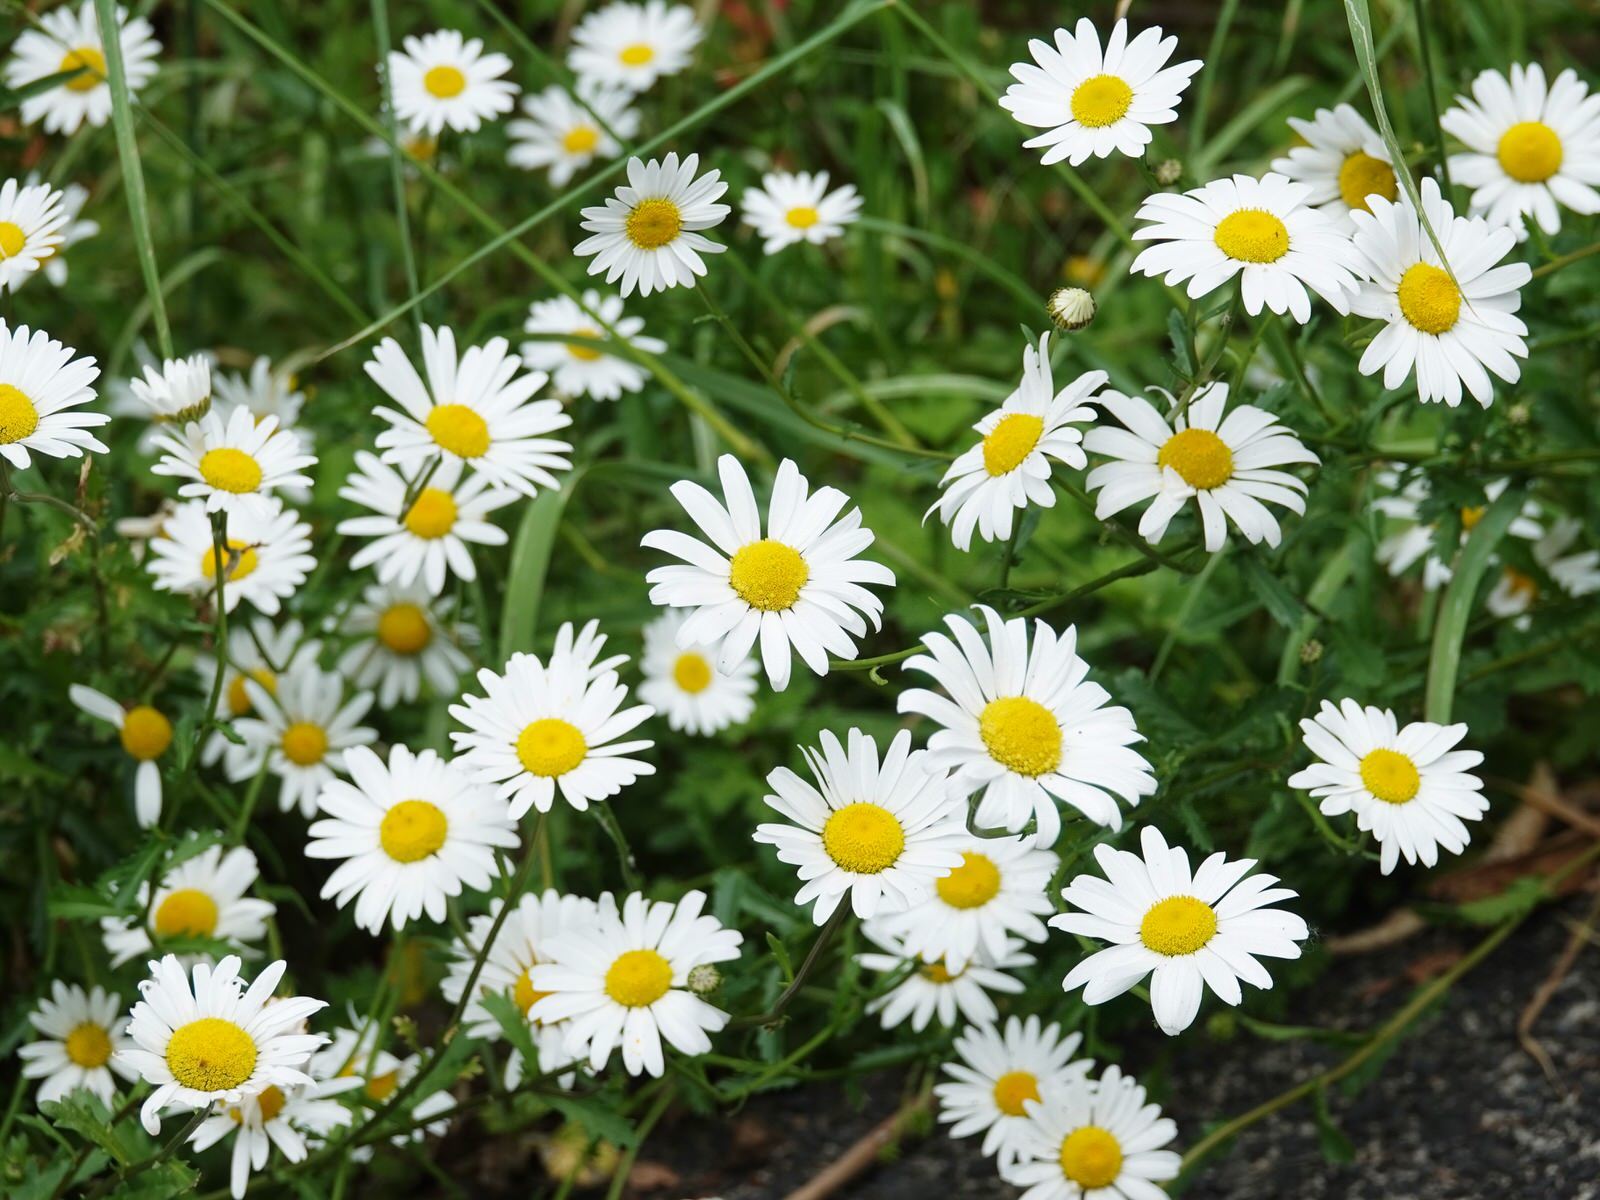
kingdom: Plantae
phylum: Tracheophyta
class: Magnoliopsida
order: Asterales
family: Asteraceae
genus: Leucanthemum
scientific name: Leucanthemum vulgare
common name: Oxeye daisy
